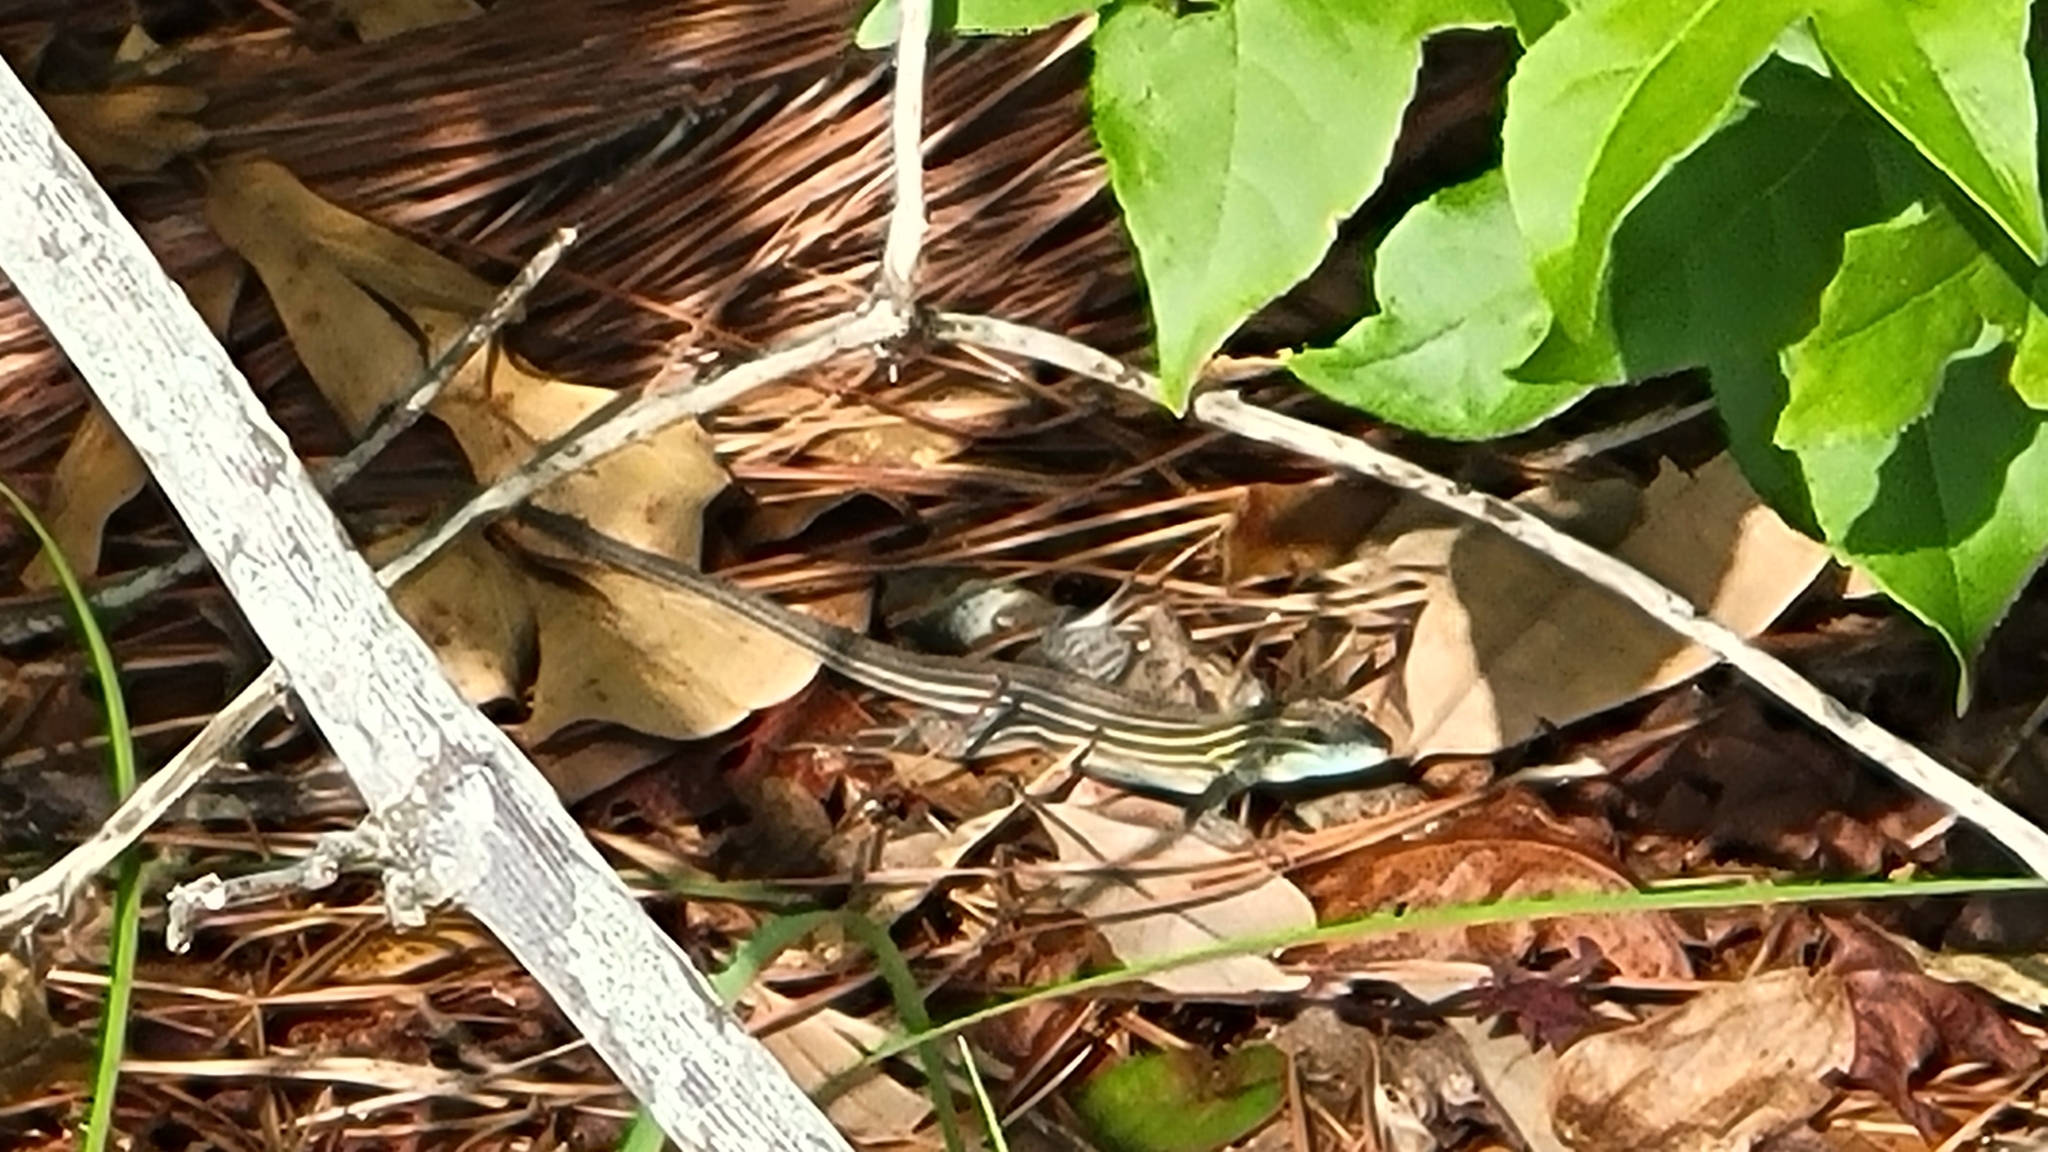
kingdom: Animalia
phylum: Chordata
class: Squamata
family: Teiidae
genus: Aspidoscelis
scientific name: Aspidoscelis sexlineatus
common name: Six-lined racerunner
